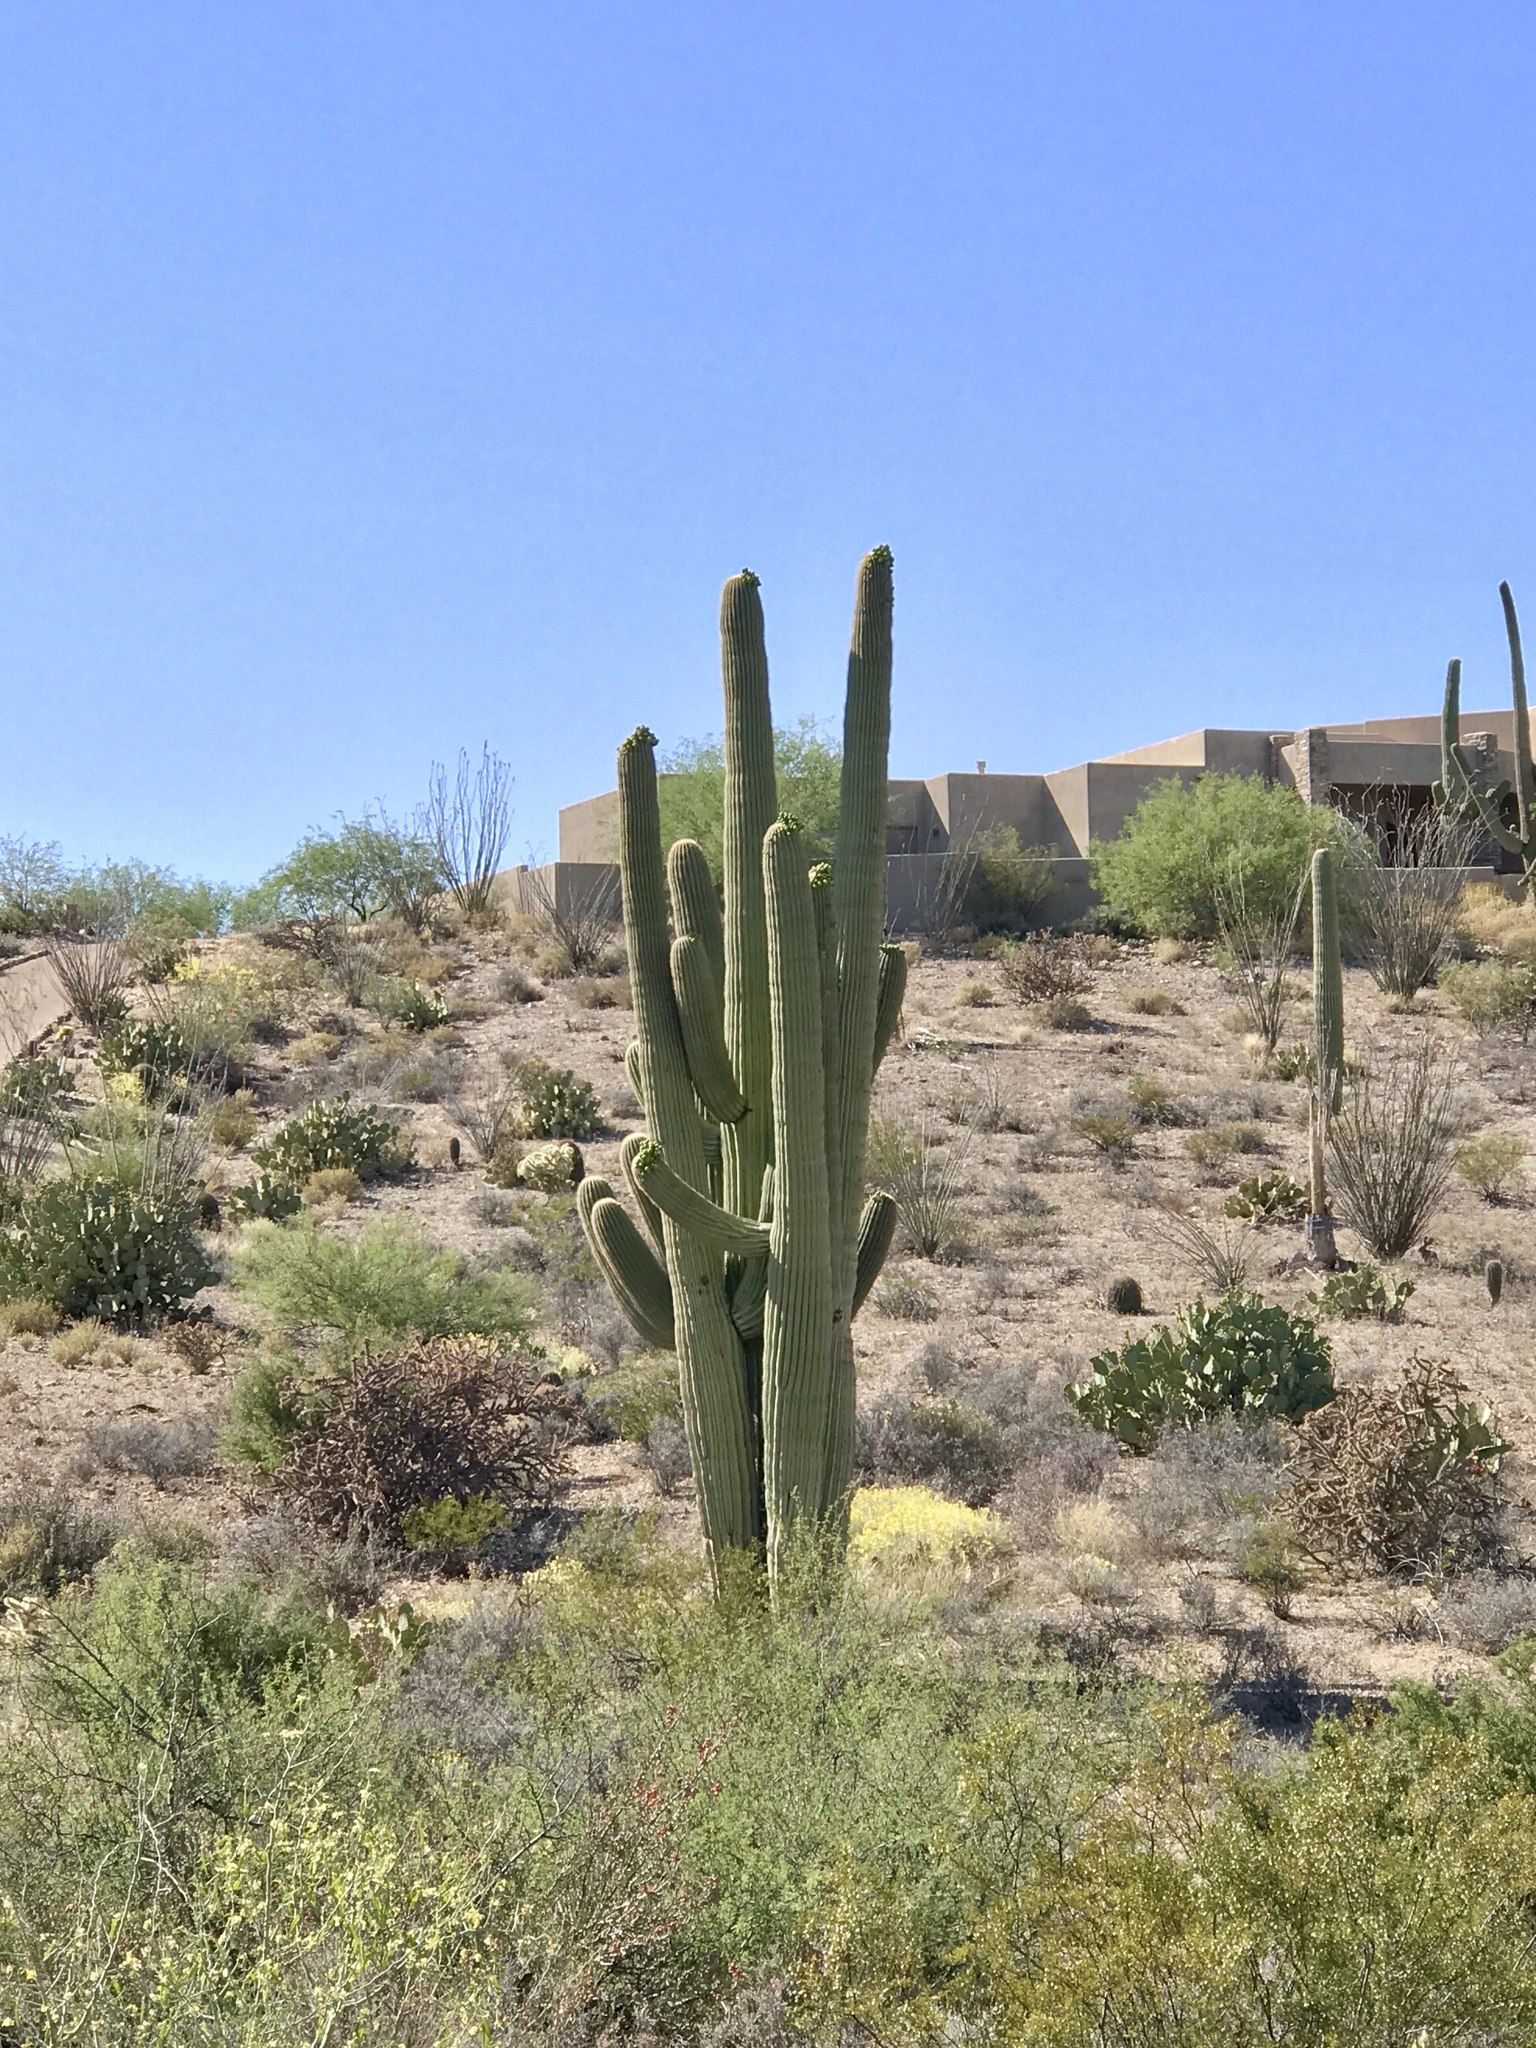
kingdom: Plantae
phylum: Tracheophyta
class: Magnoliopsida
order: Caryophyllales
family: Cactaceae
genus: Carnegiea
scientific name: Carnegiea gigantea
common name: Saguaro
